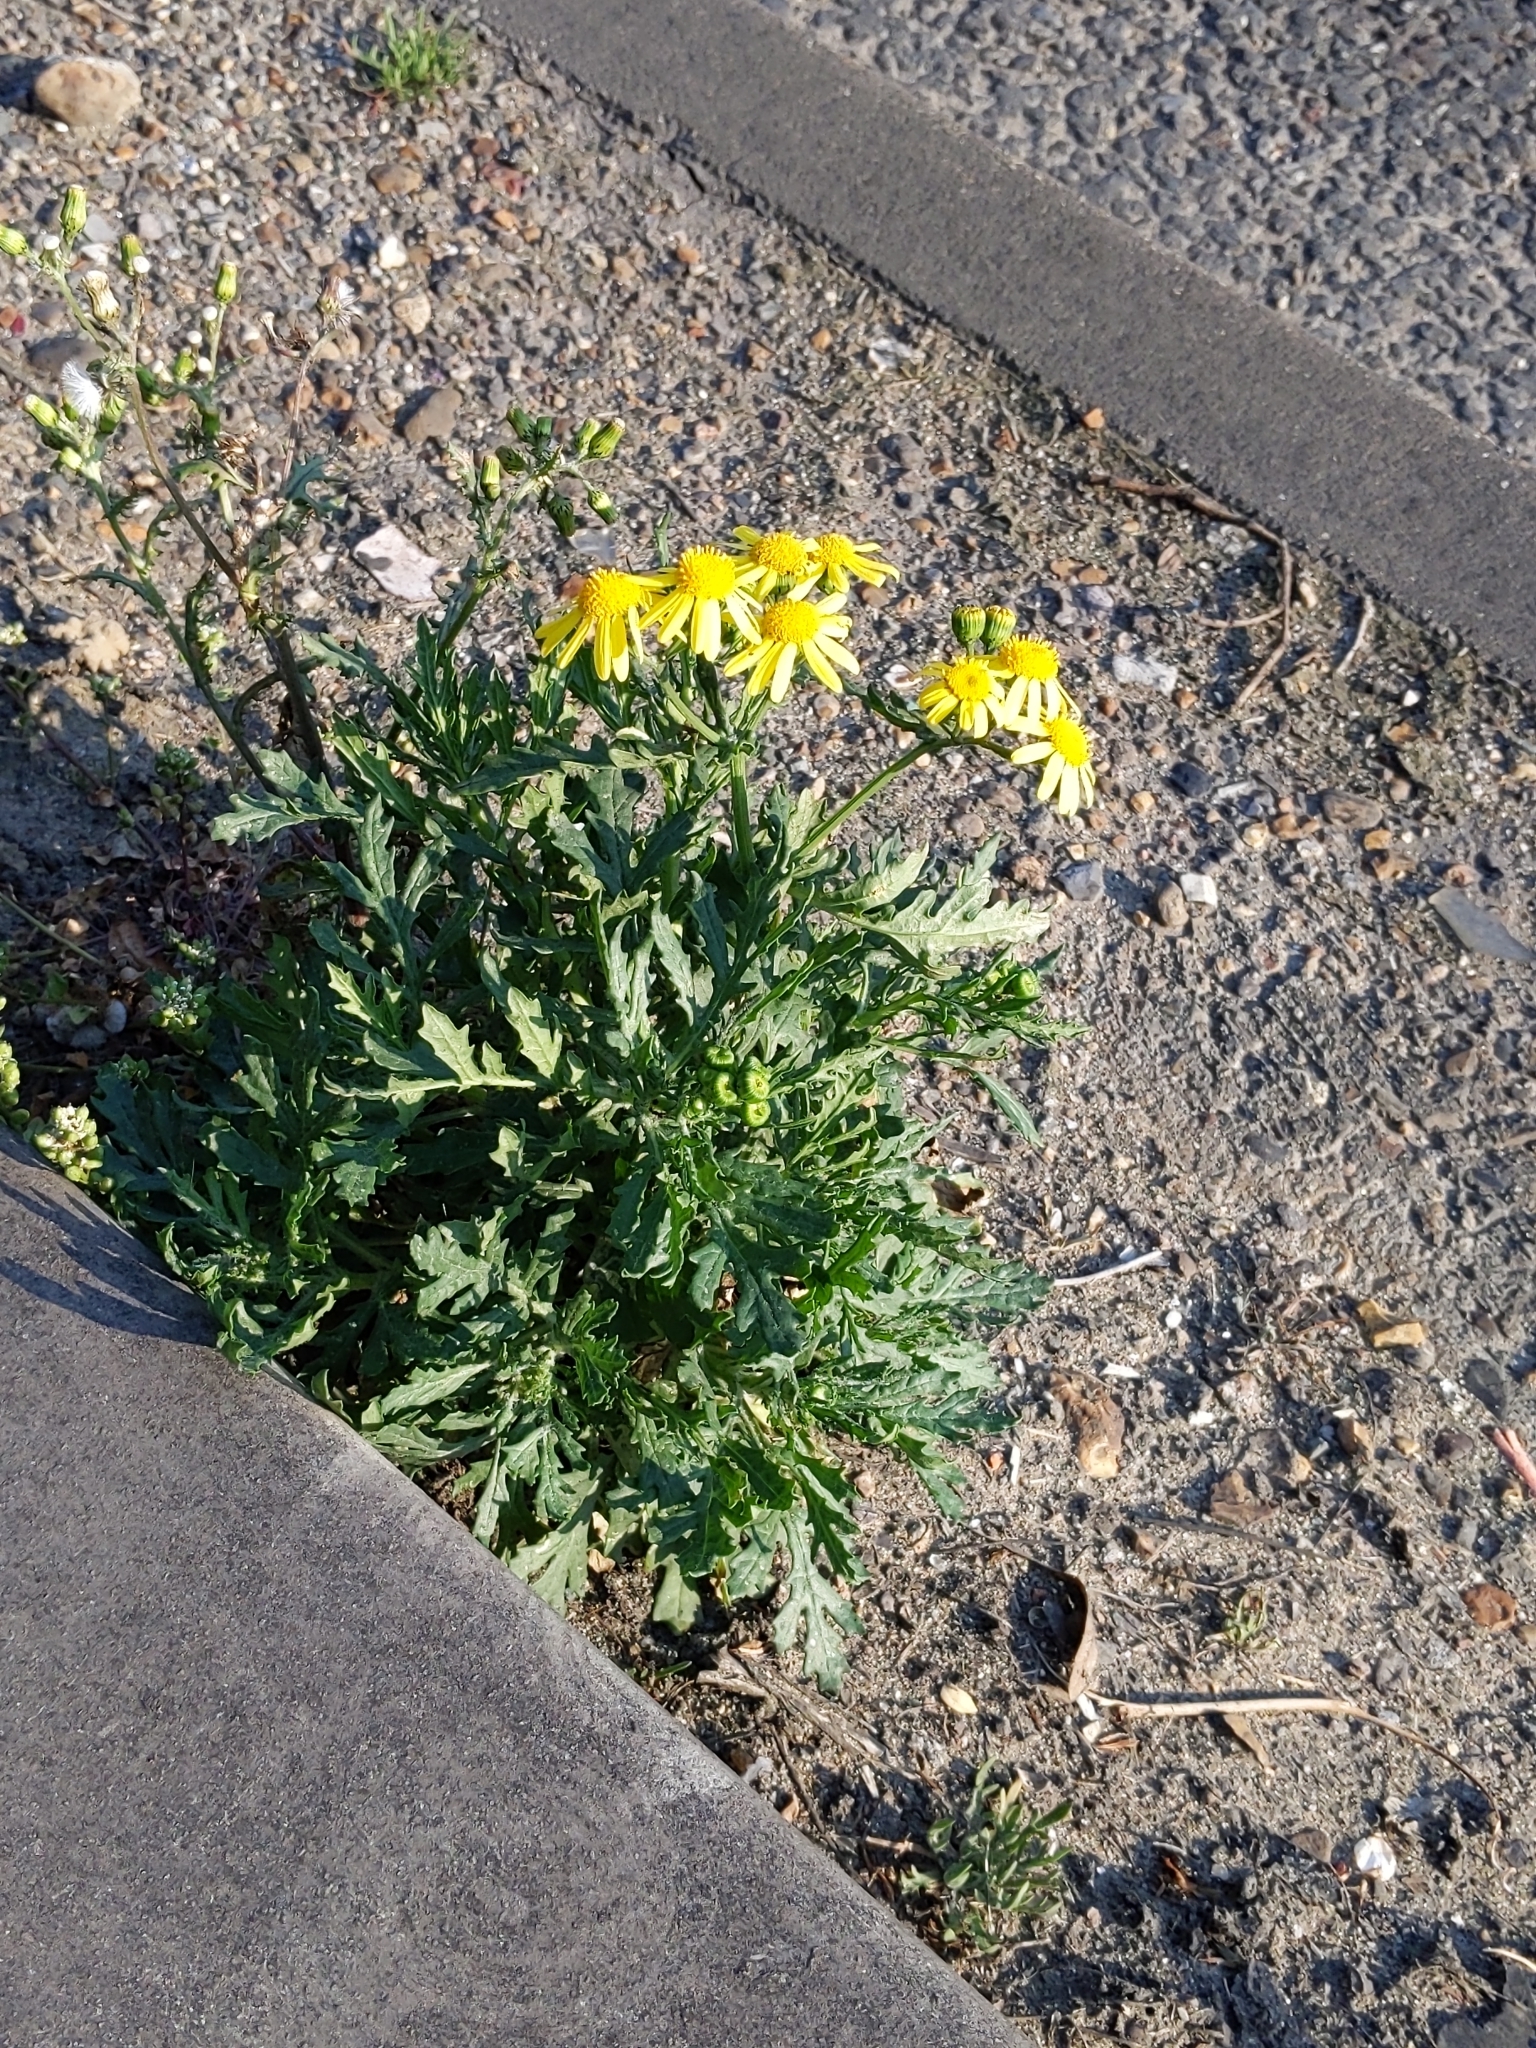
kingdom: Plantae
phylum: Tracheophyta
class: Magnoliopsida
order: Asterales
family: Asteraceae
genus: Senecio
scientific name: Senecio squalidus
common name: Oxford ragwort
